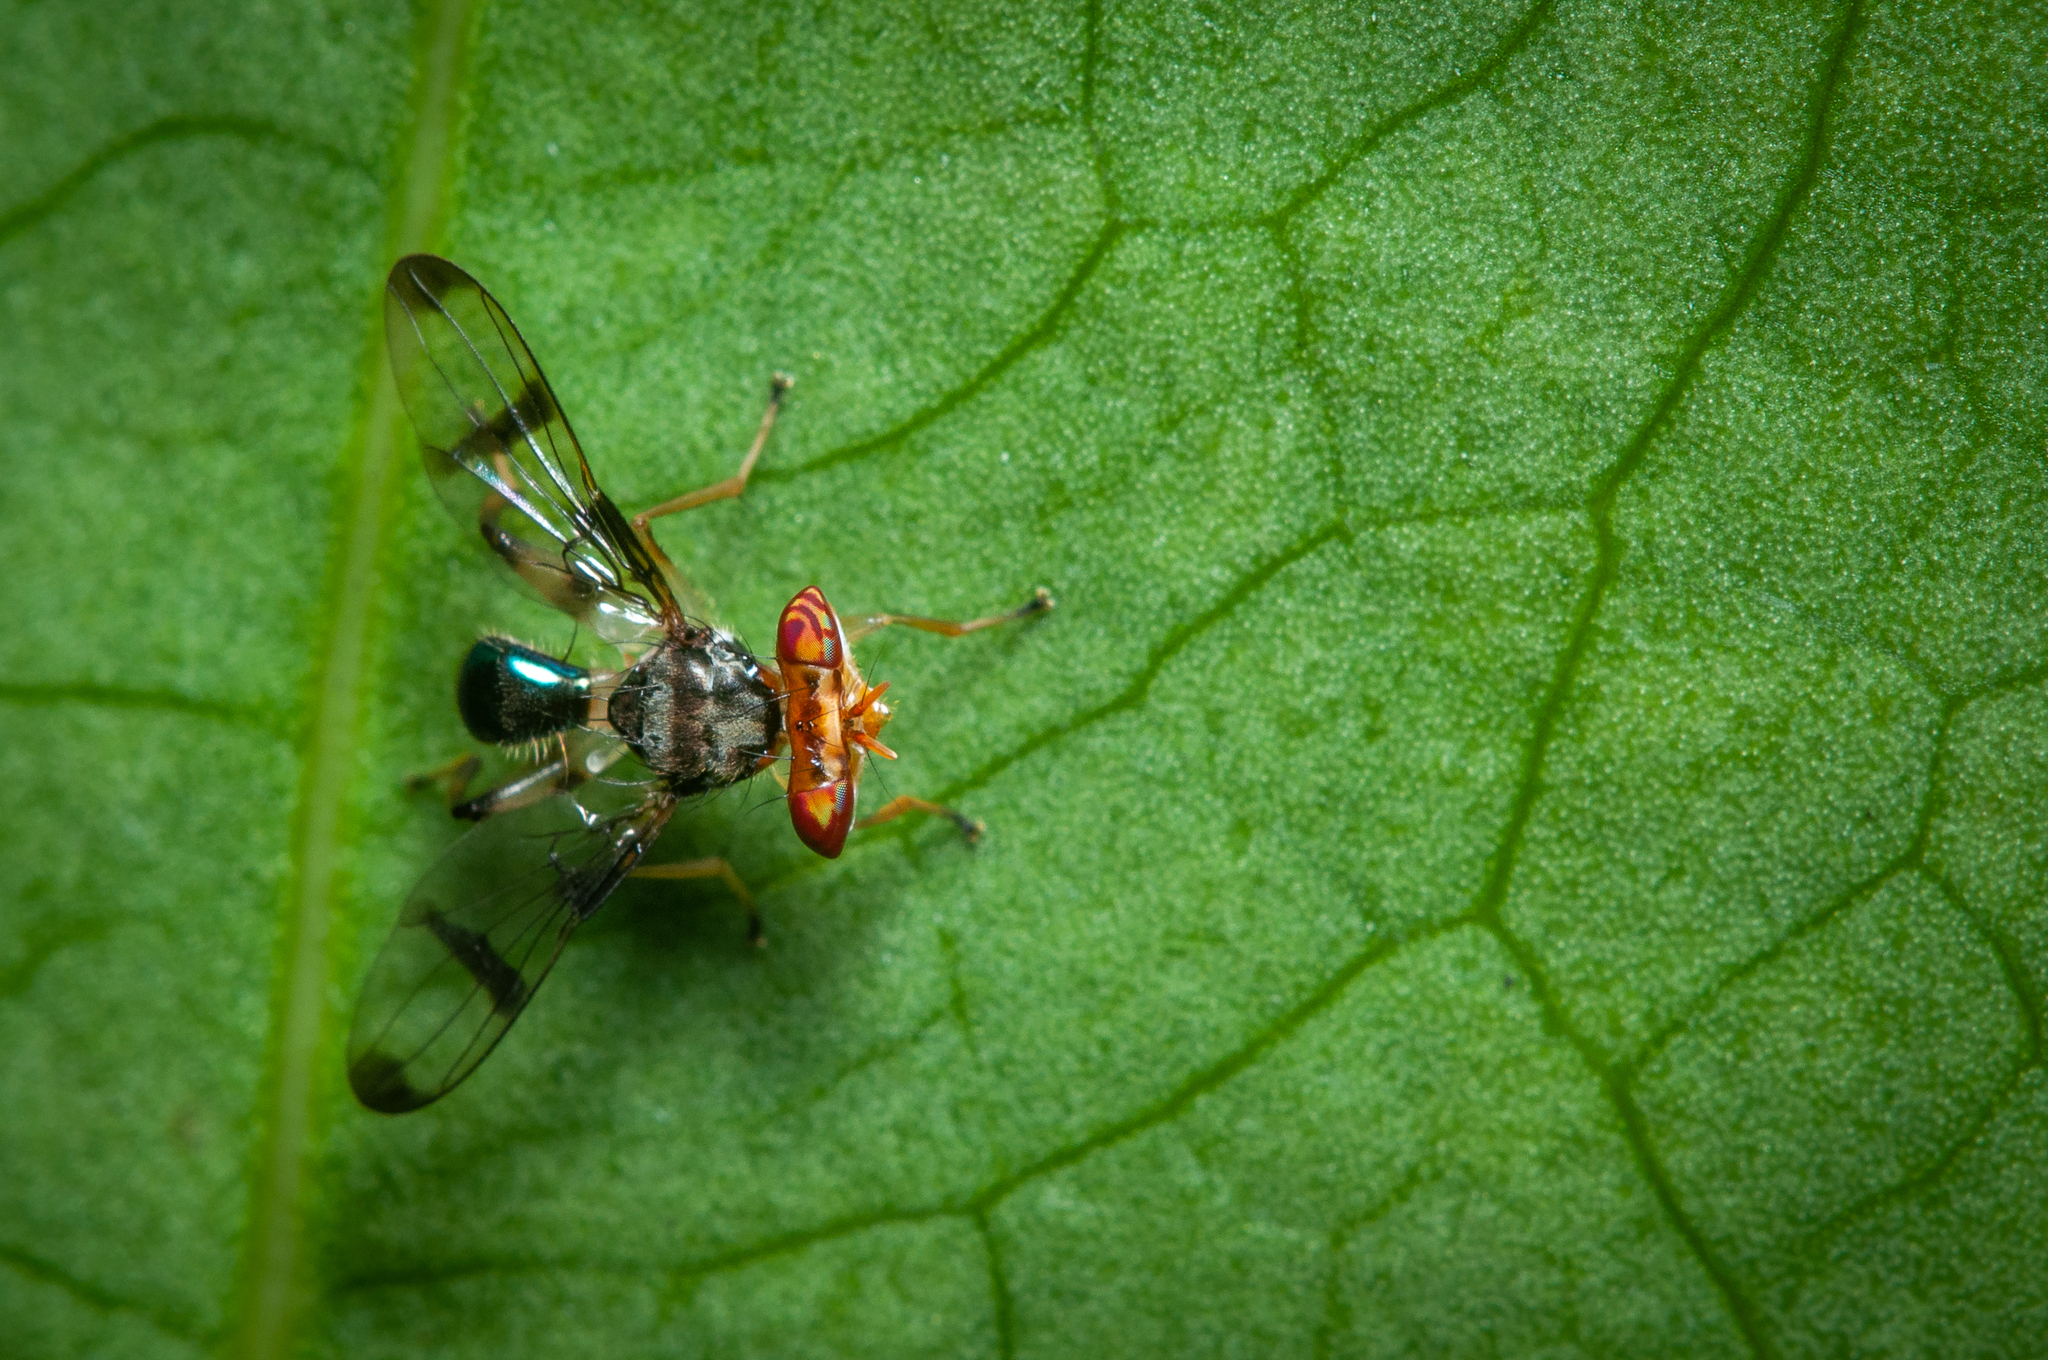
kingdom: Animalia
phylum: Arthropoda
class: Insecta
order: Diptera
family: Richardiidae
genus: Richardia
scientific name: Richardia
